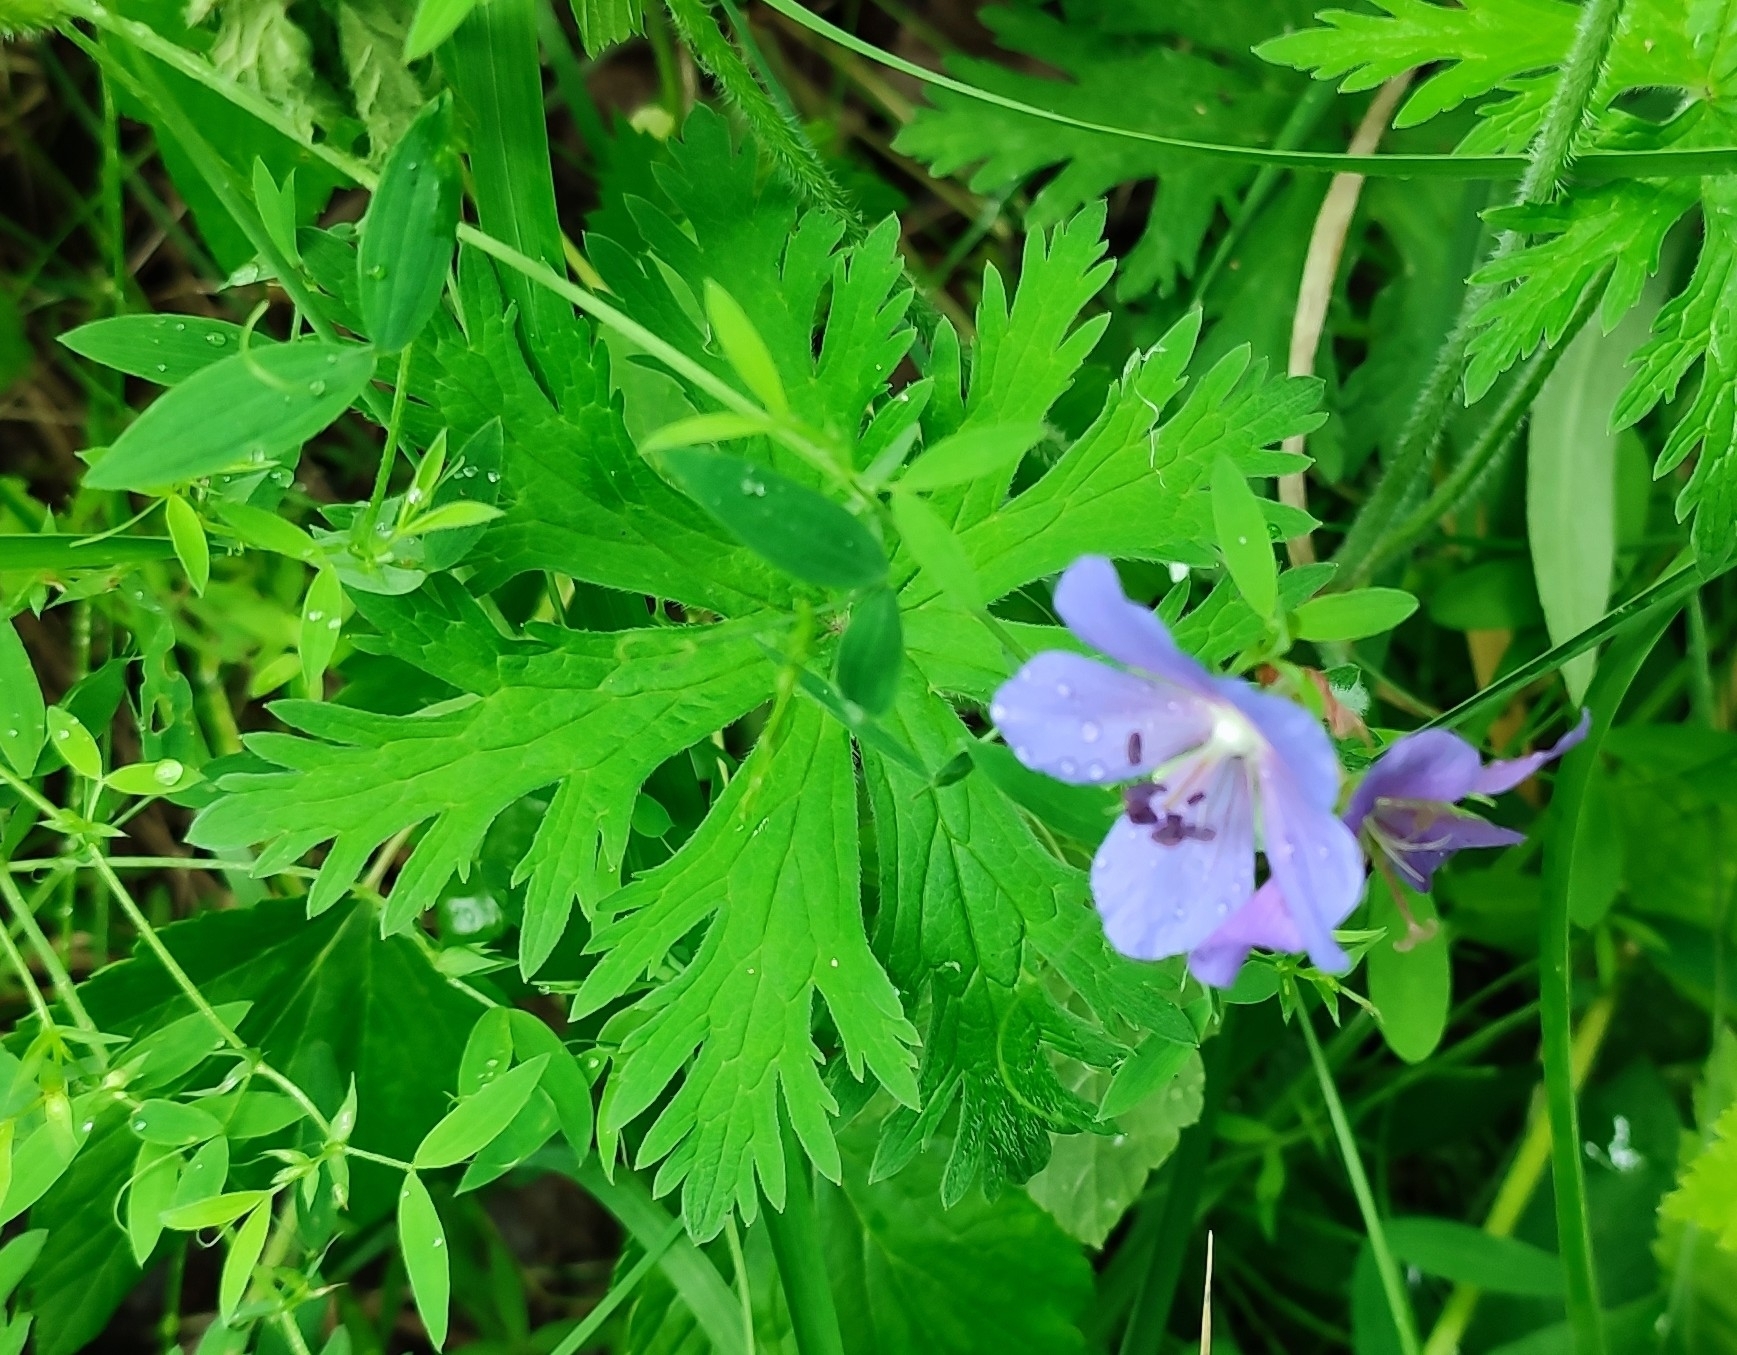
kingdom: Plantae
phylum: Tracheophyta
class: Magnoliopsida
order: Geraniales
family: Geraniaceae
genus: Geranium
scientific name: Geranium pratense
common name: Meadow crane's-bill
